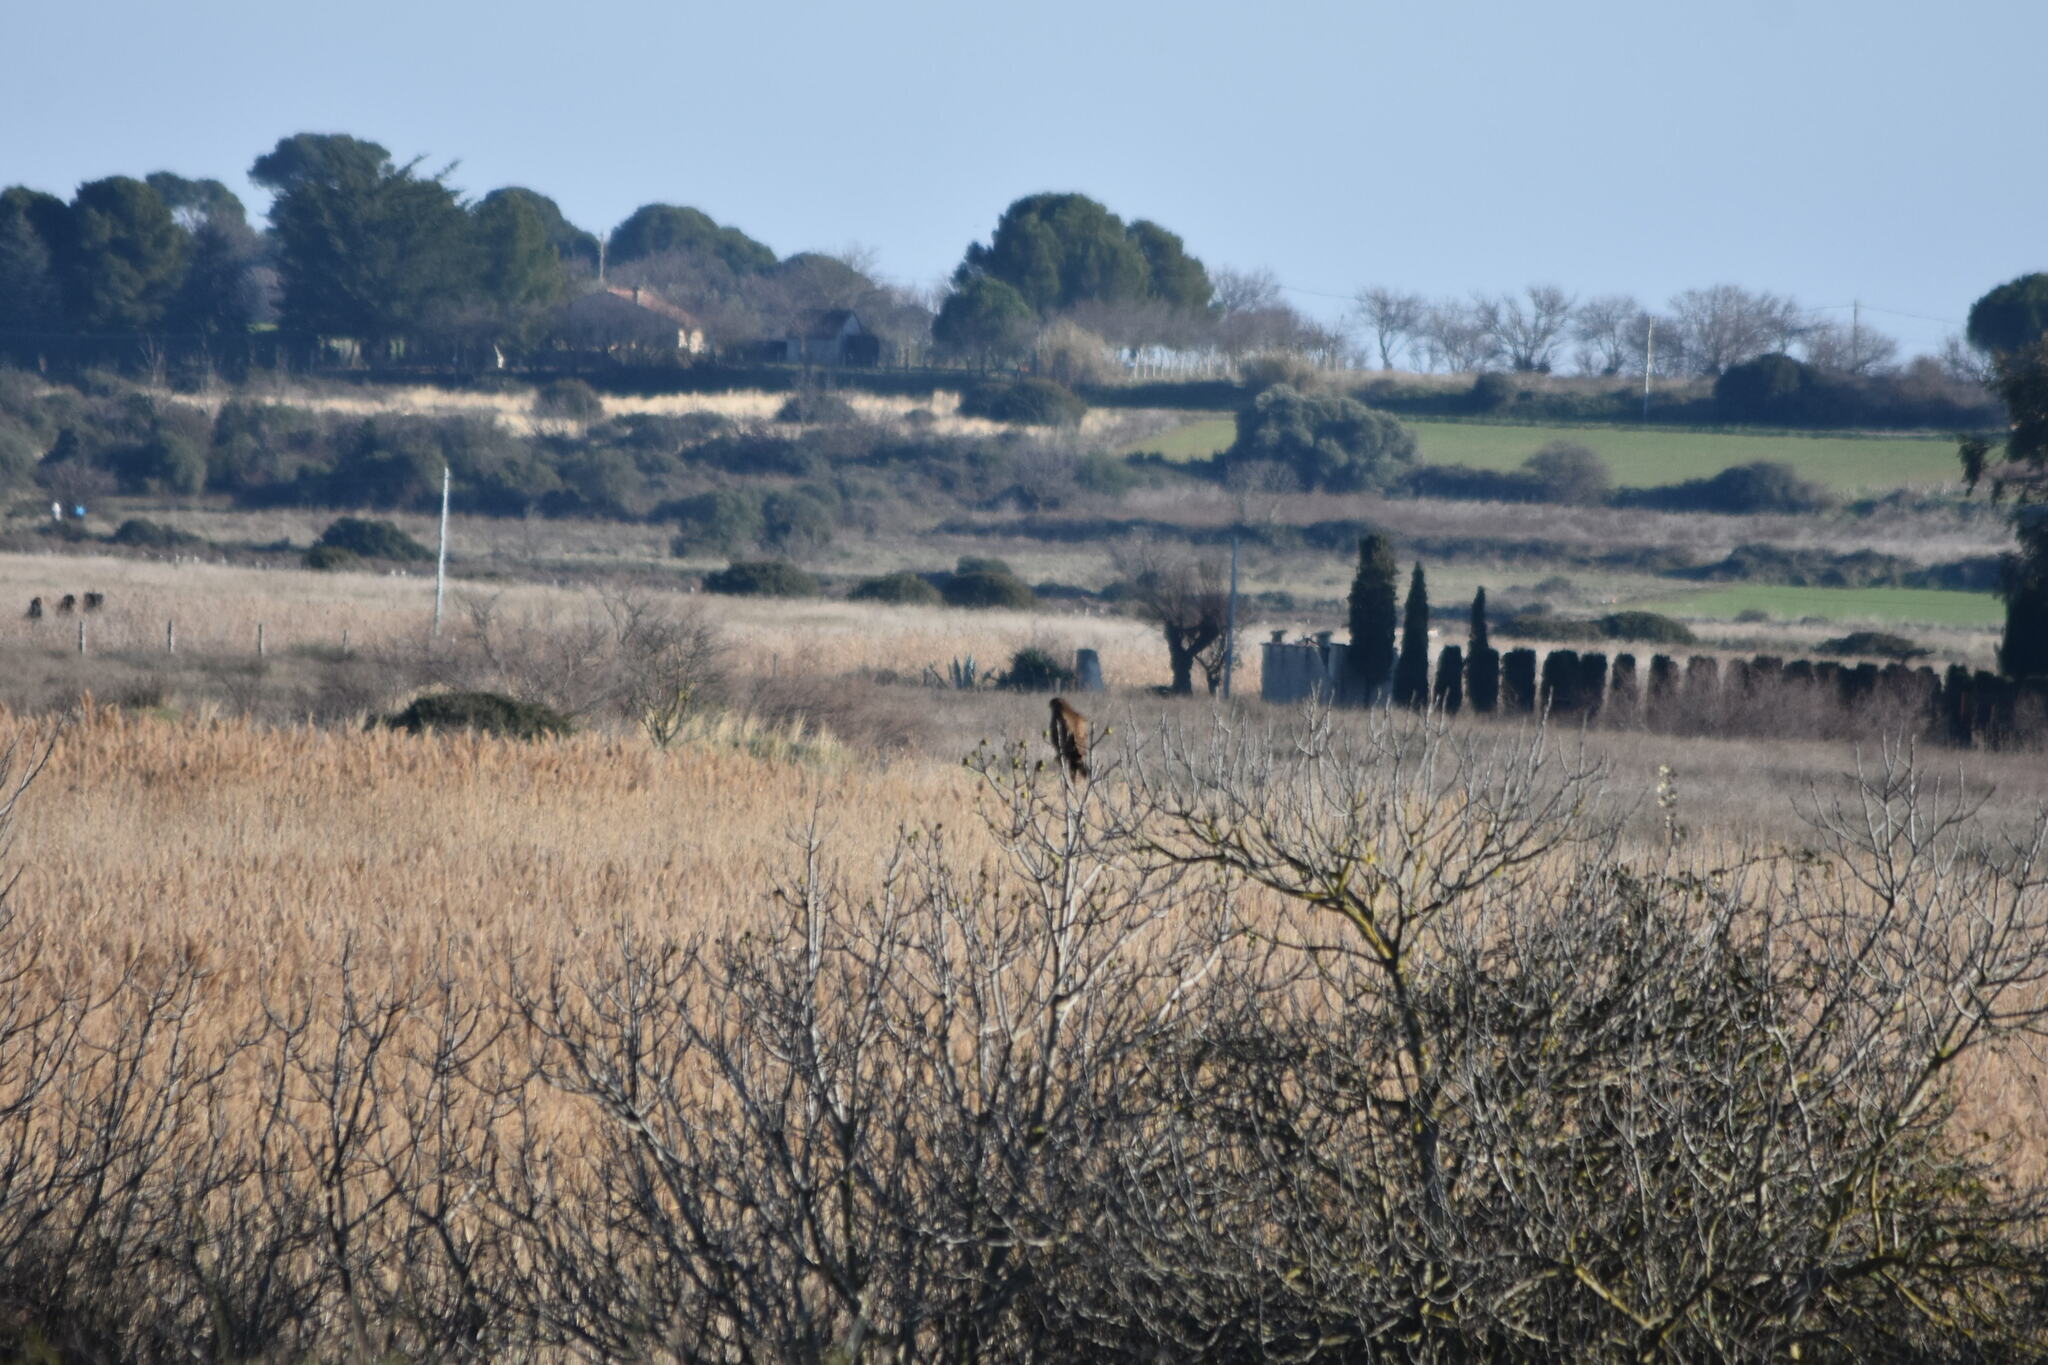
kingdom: Animalia
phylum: Chordata
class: Aves
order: Accipitriformes
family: Accipitridae
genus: Buteo
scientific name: Buteo buteo
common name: Common buzzard
